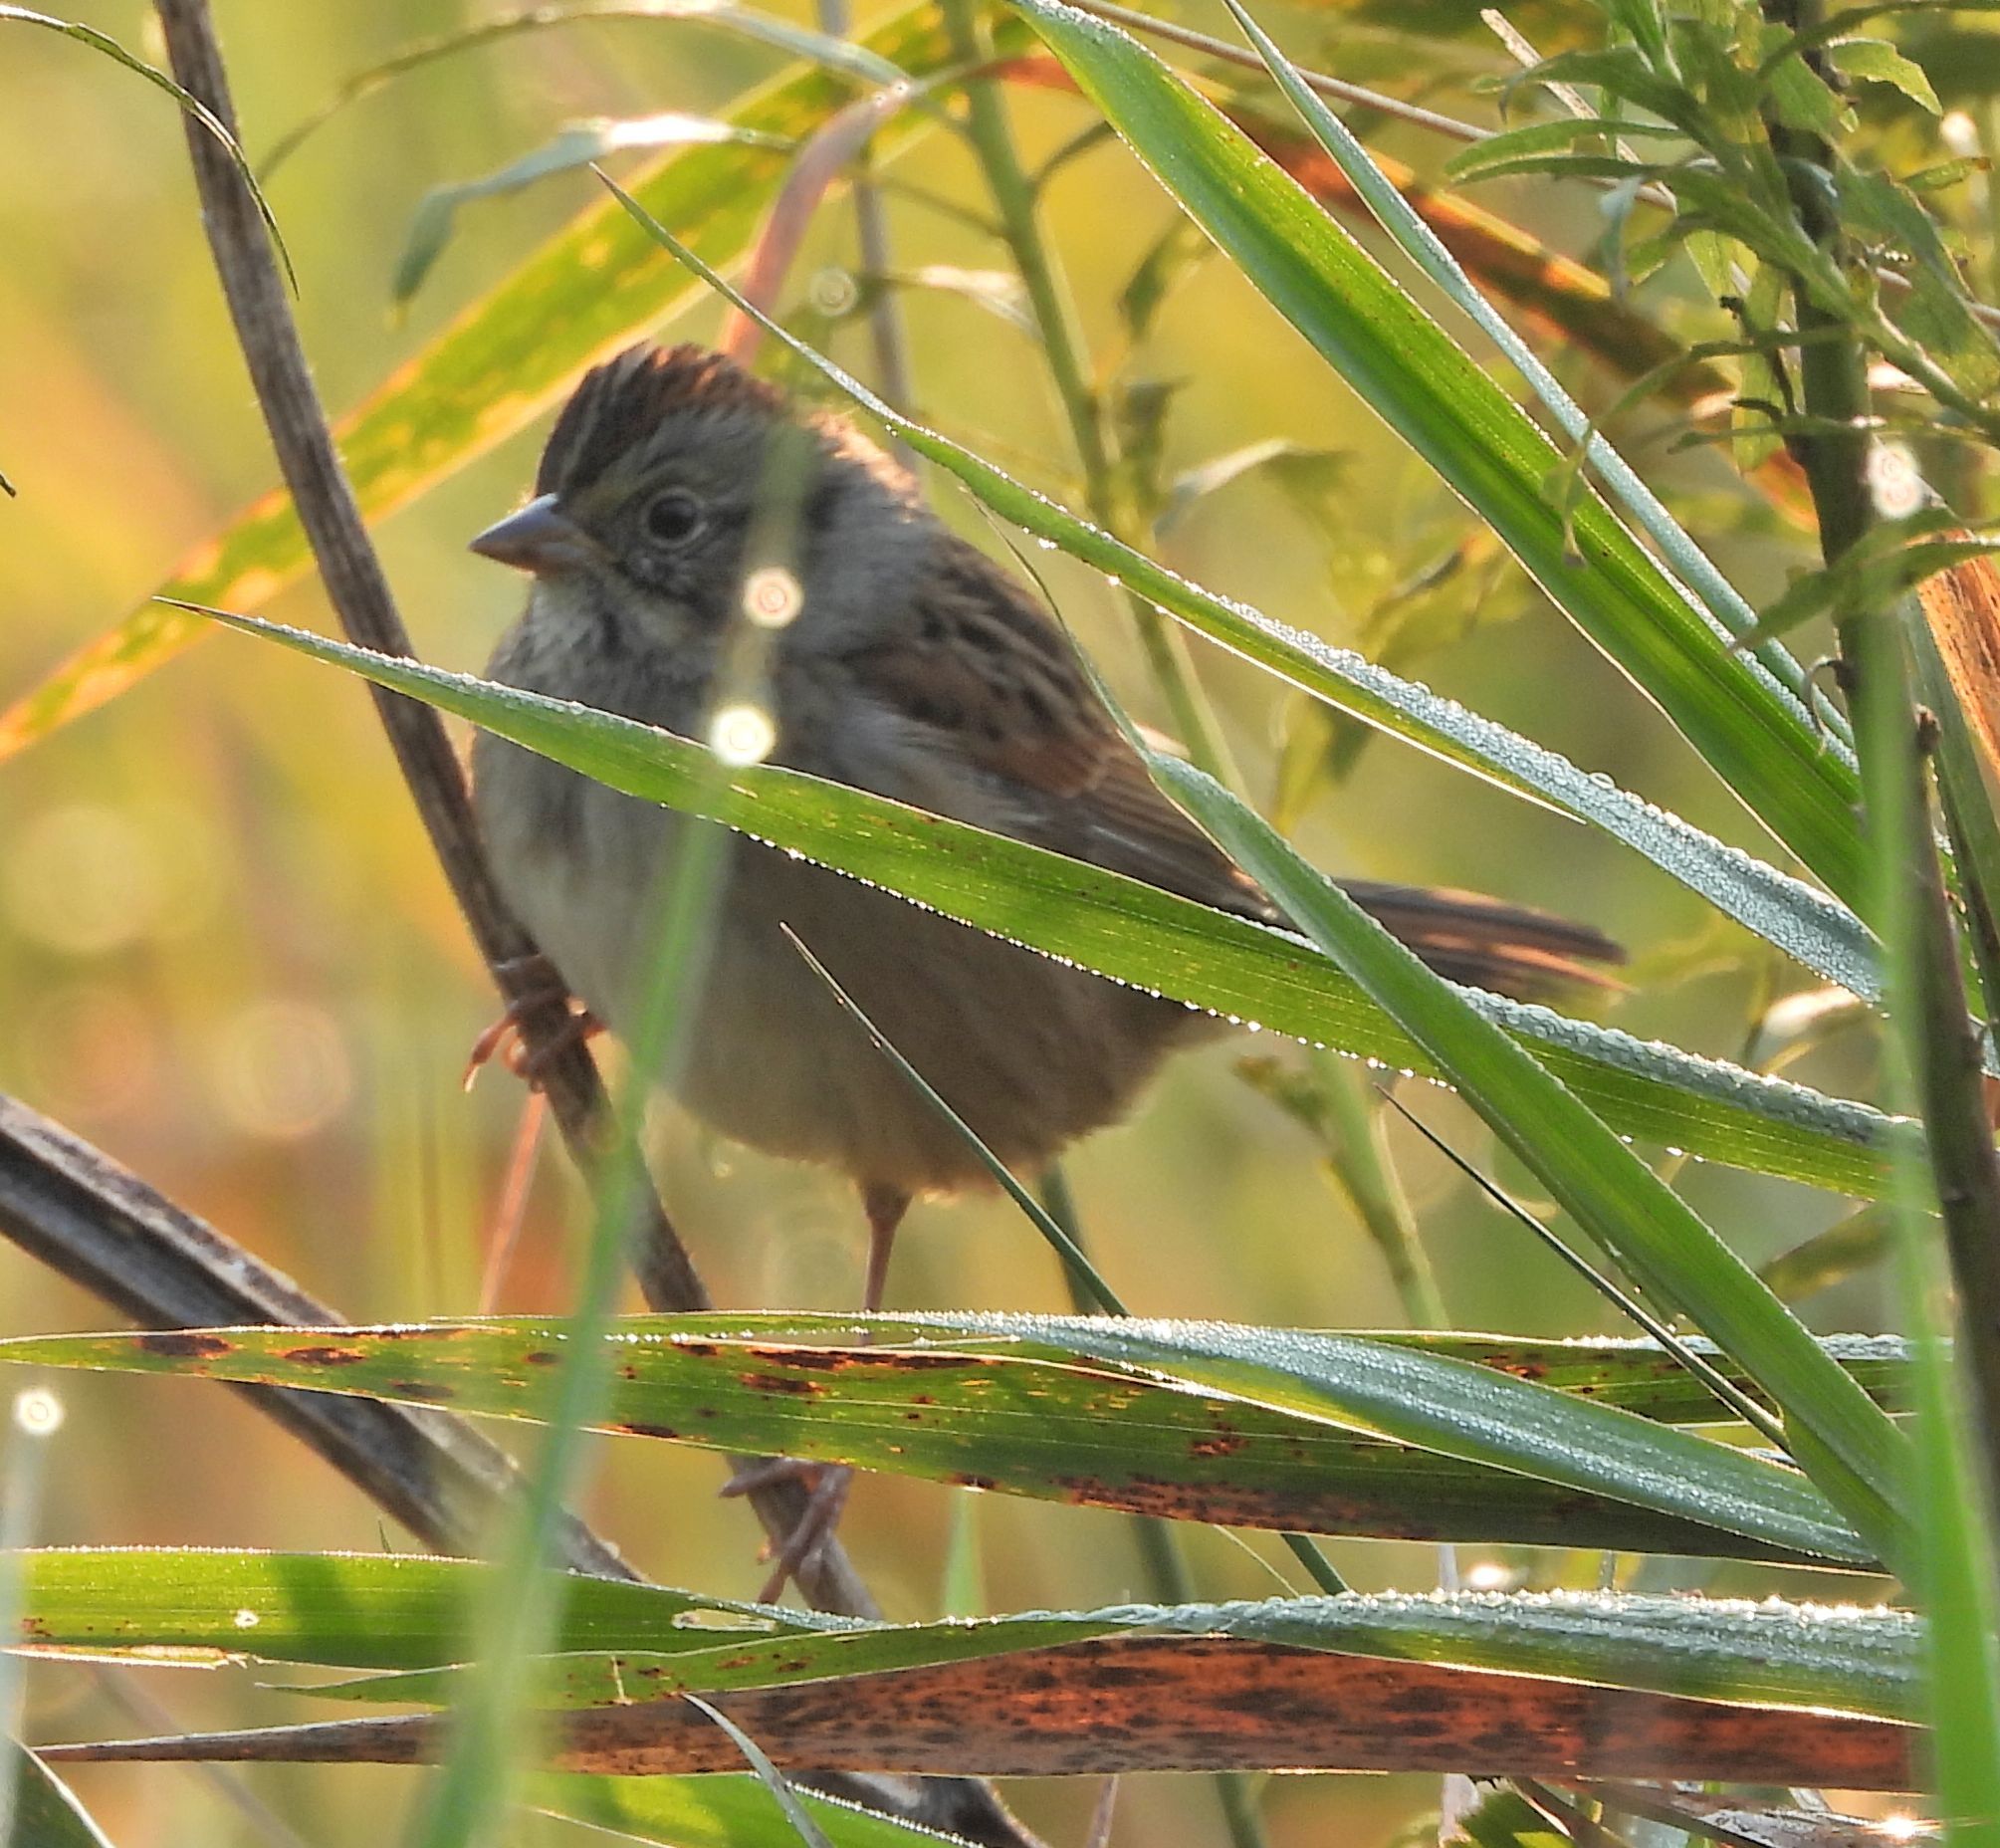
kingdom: Animalia
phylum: Chordata
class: Aves
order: Passeriformes
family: Passerellidae
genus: Melospiza
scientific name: Melospiza georgiana
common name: Swamp sparrow
